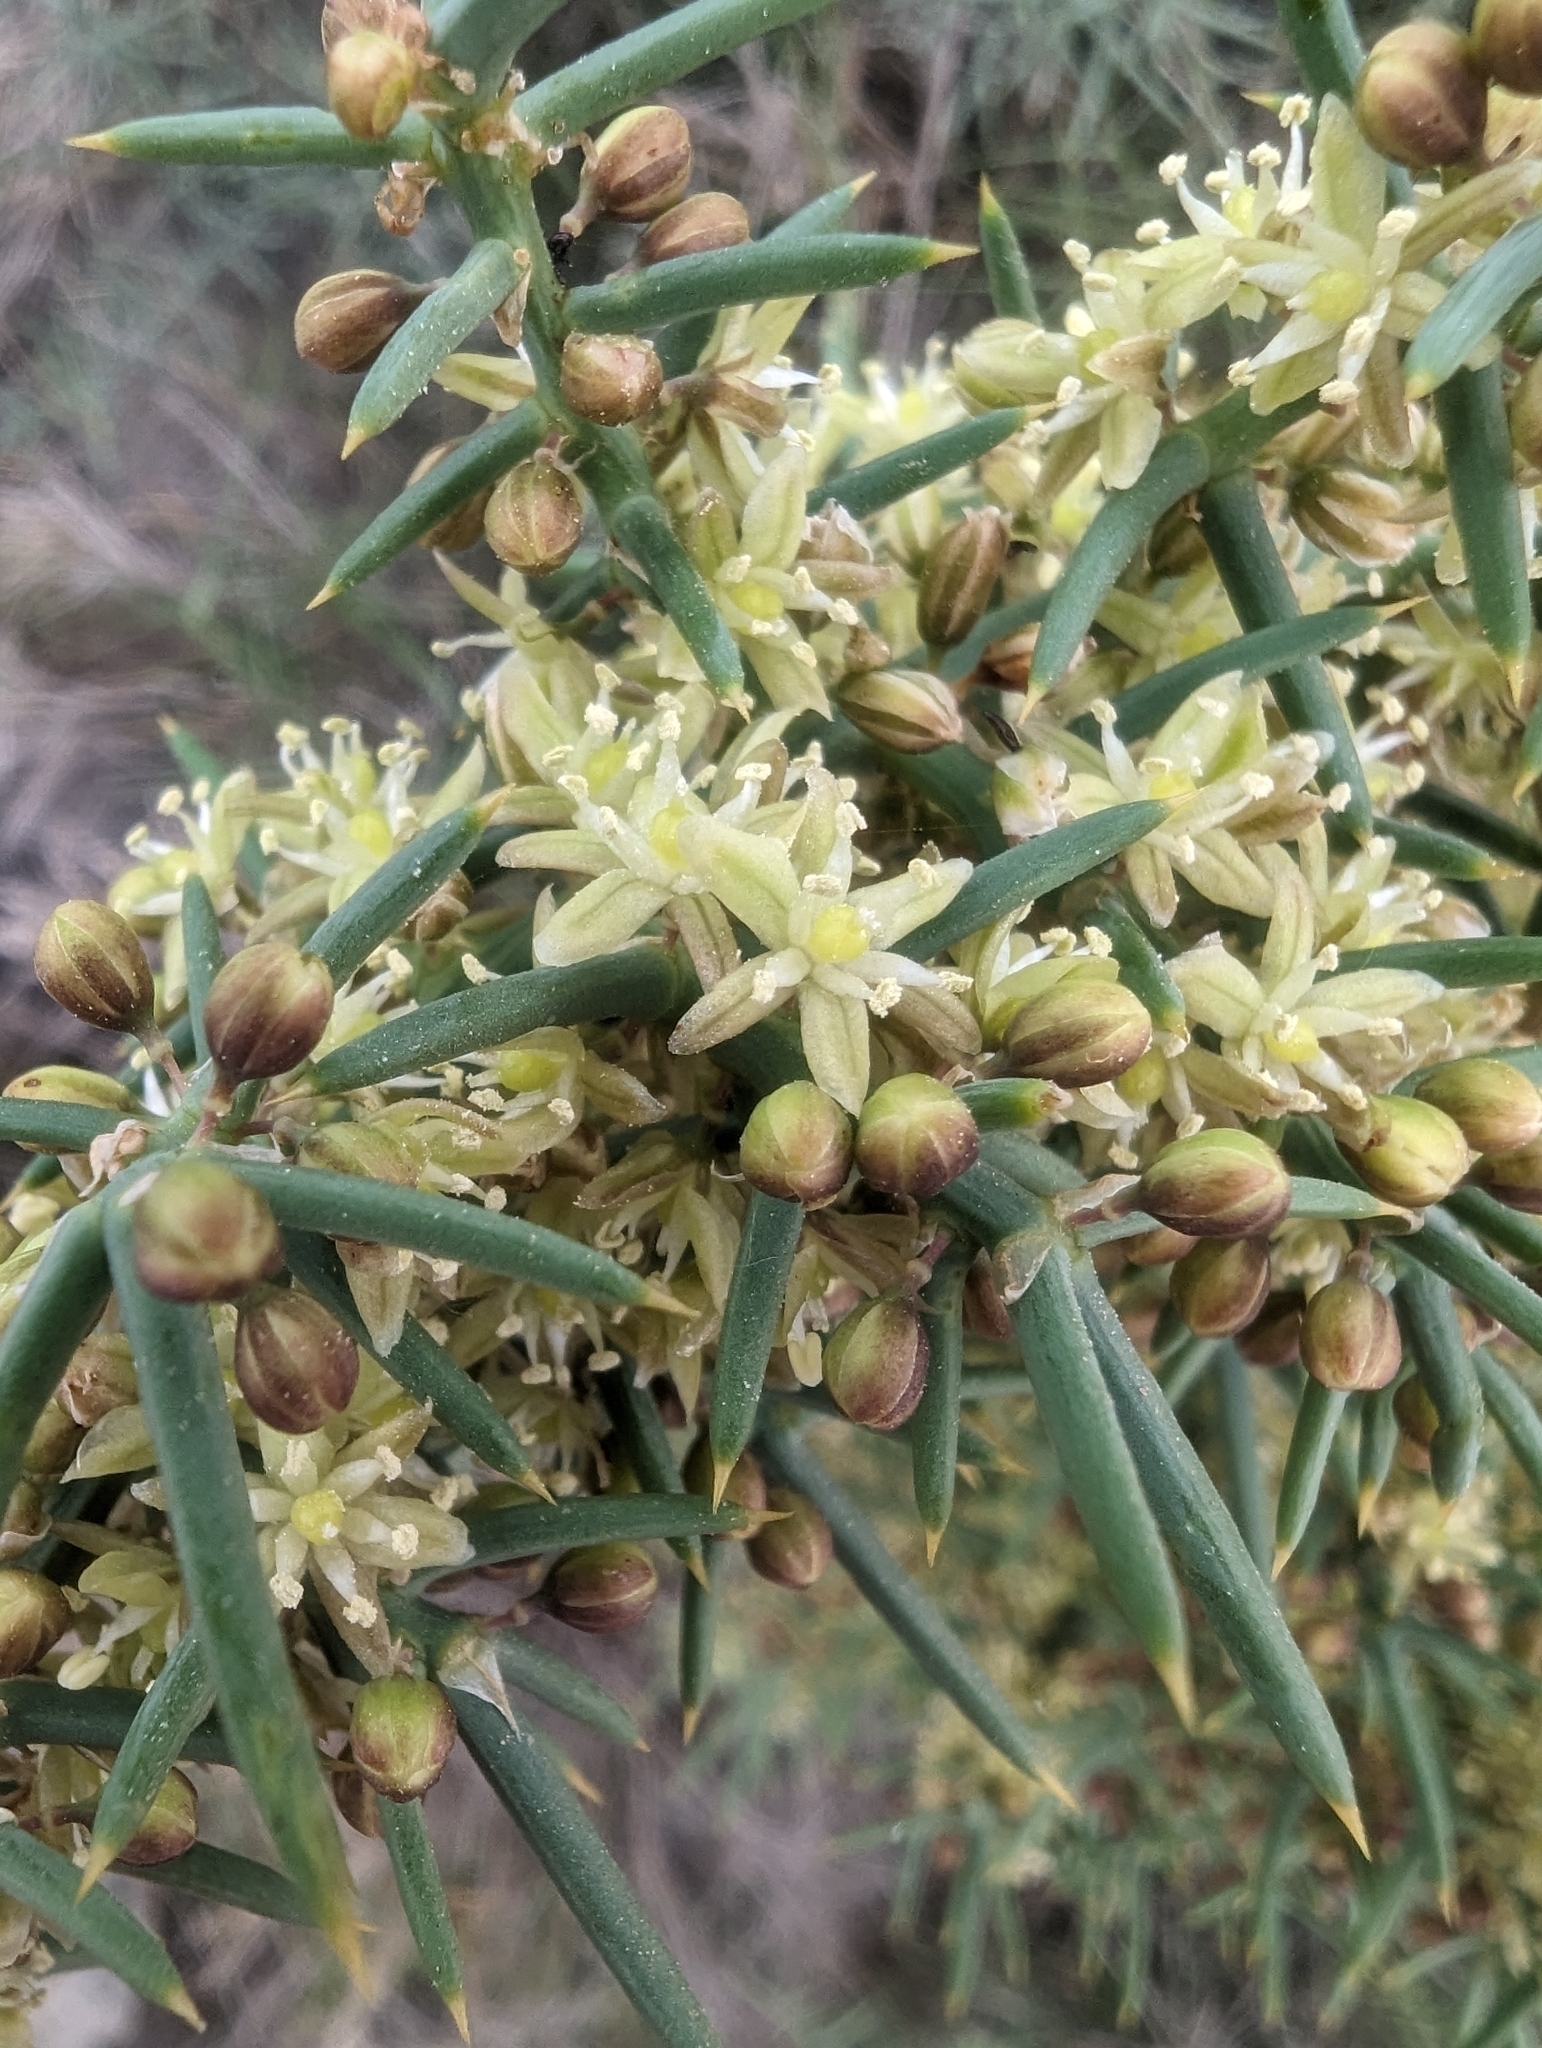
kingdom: Plantae
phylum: Tracheophyta
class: Liliopsida
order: Asparagales
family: Asparagaceae
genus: Asparagus
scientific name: Asparagus horridus
